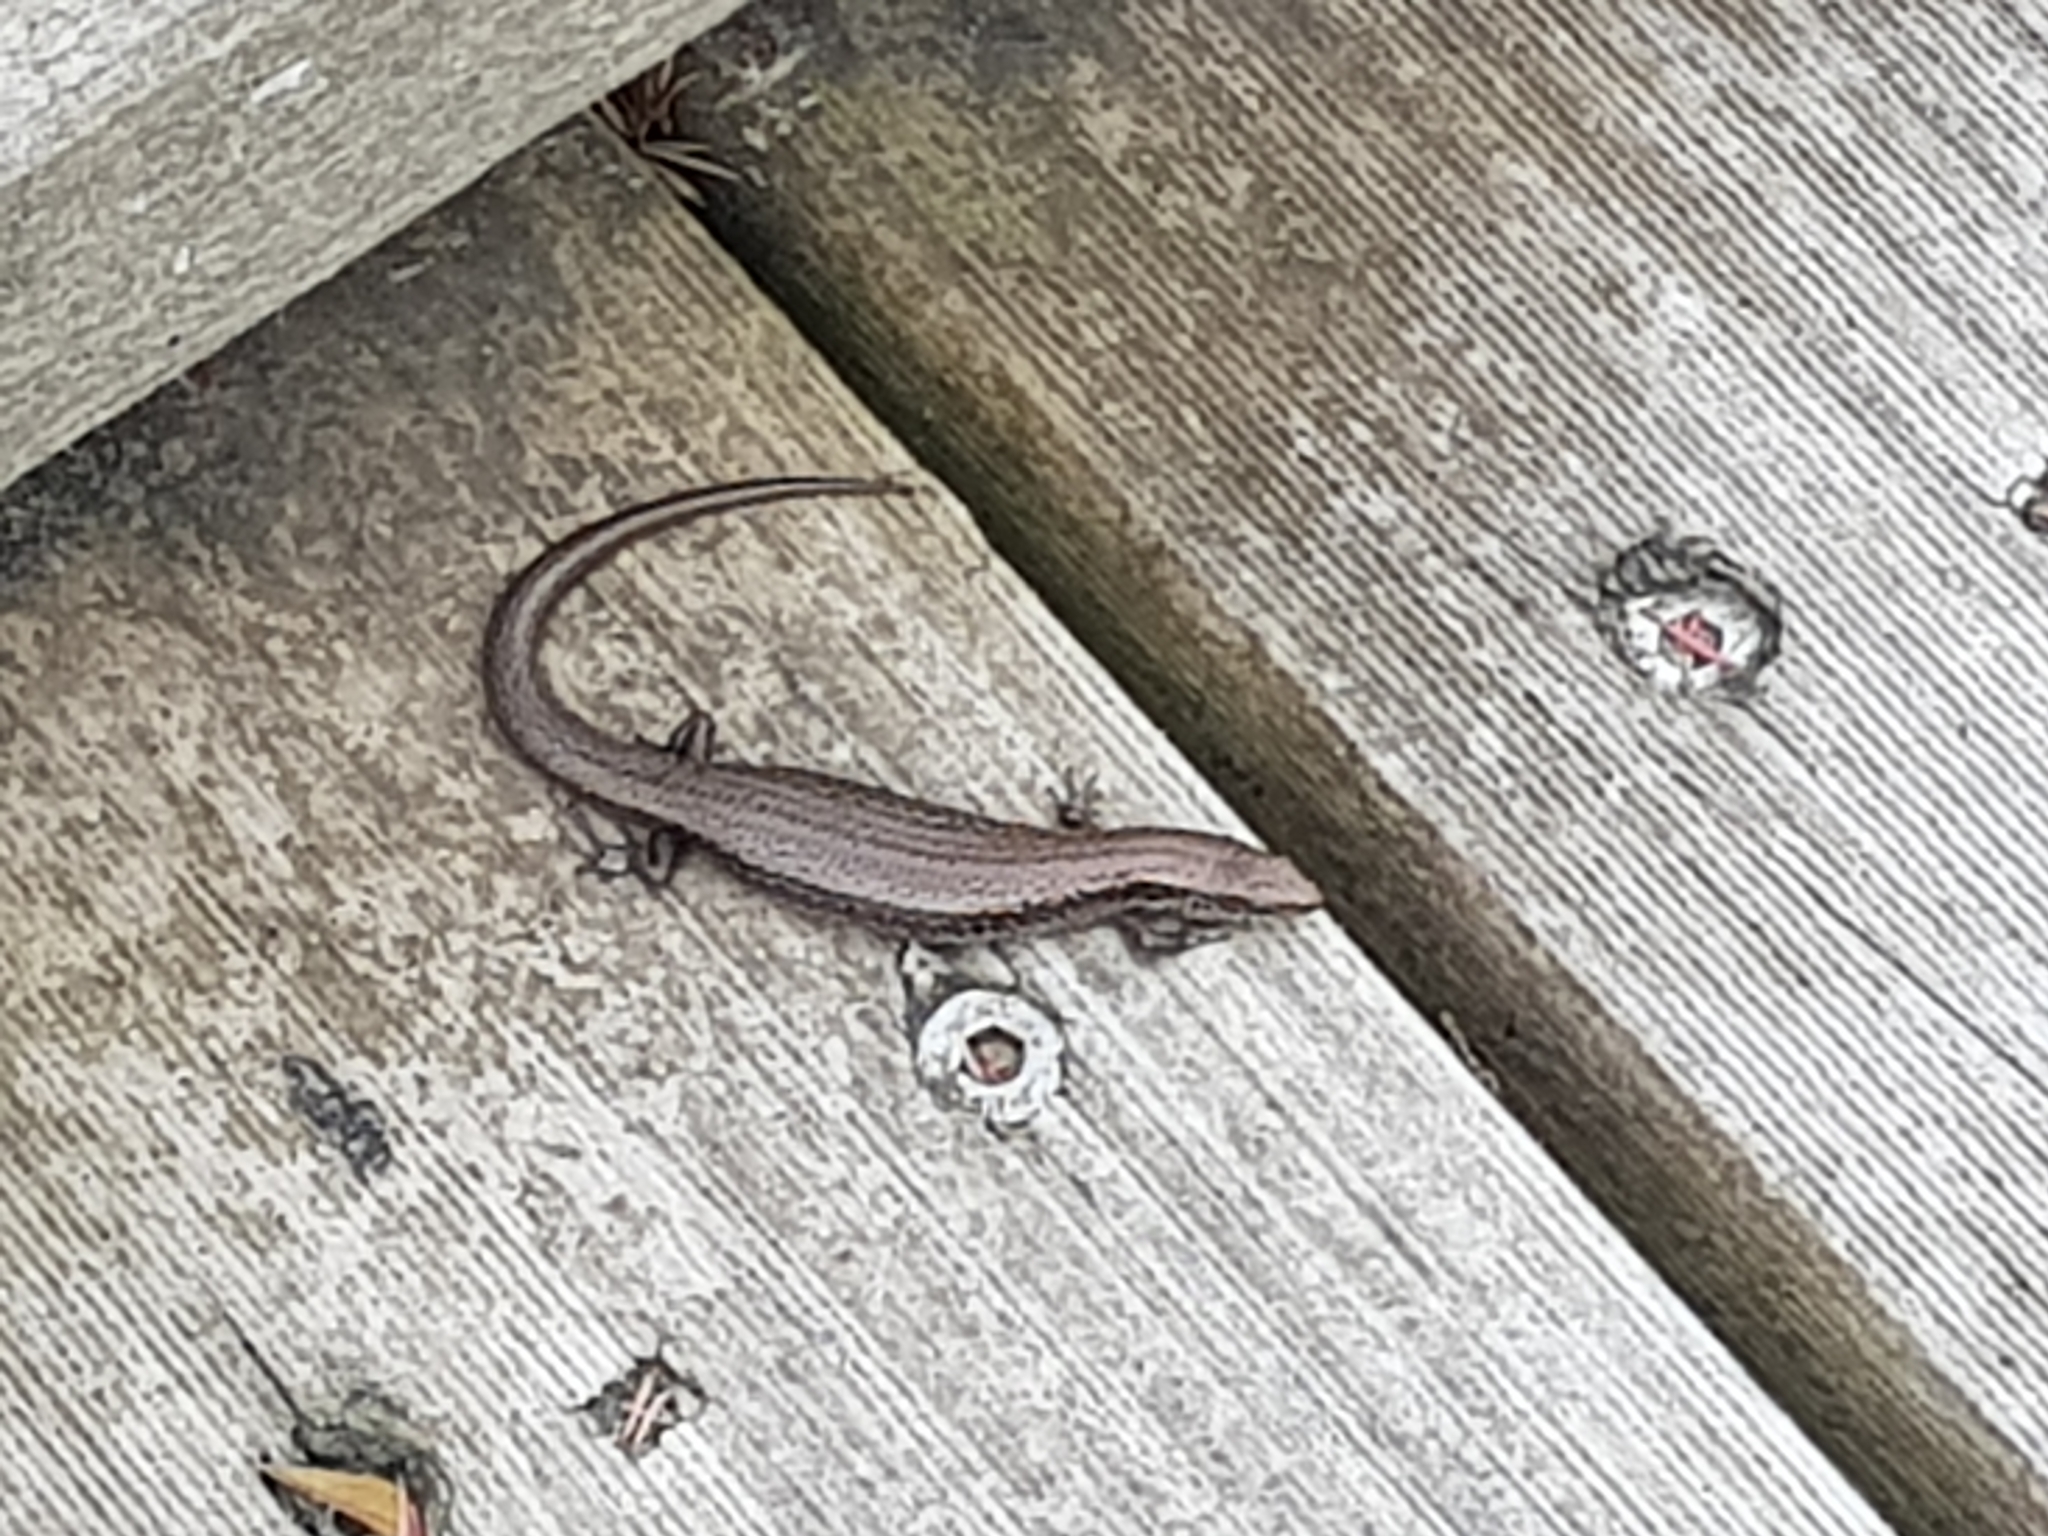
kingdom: Animalia
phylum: Chordata
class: Squamata
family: Scincidae
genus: Carinascincus
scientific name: Carinascincus metallicus
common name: Metallic cool-skink
